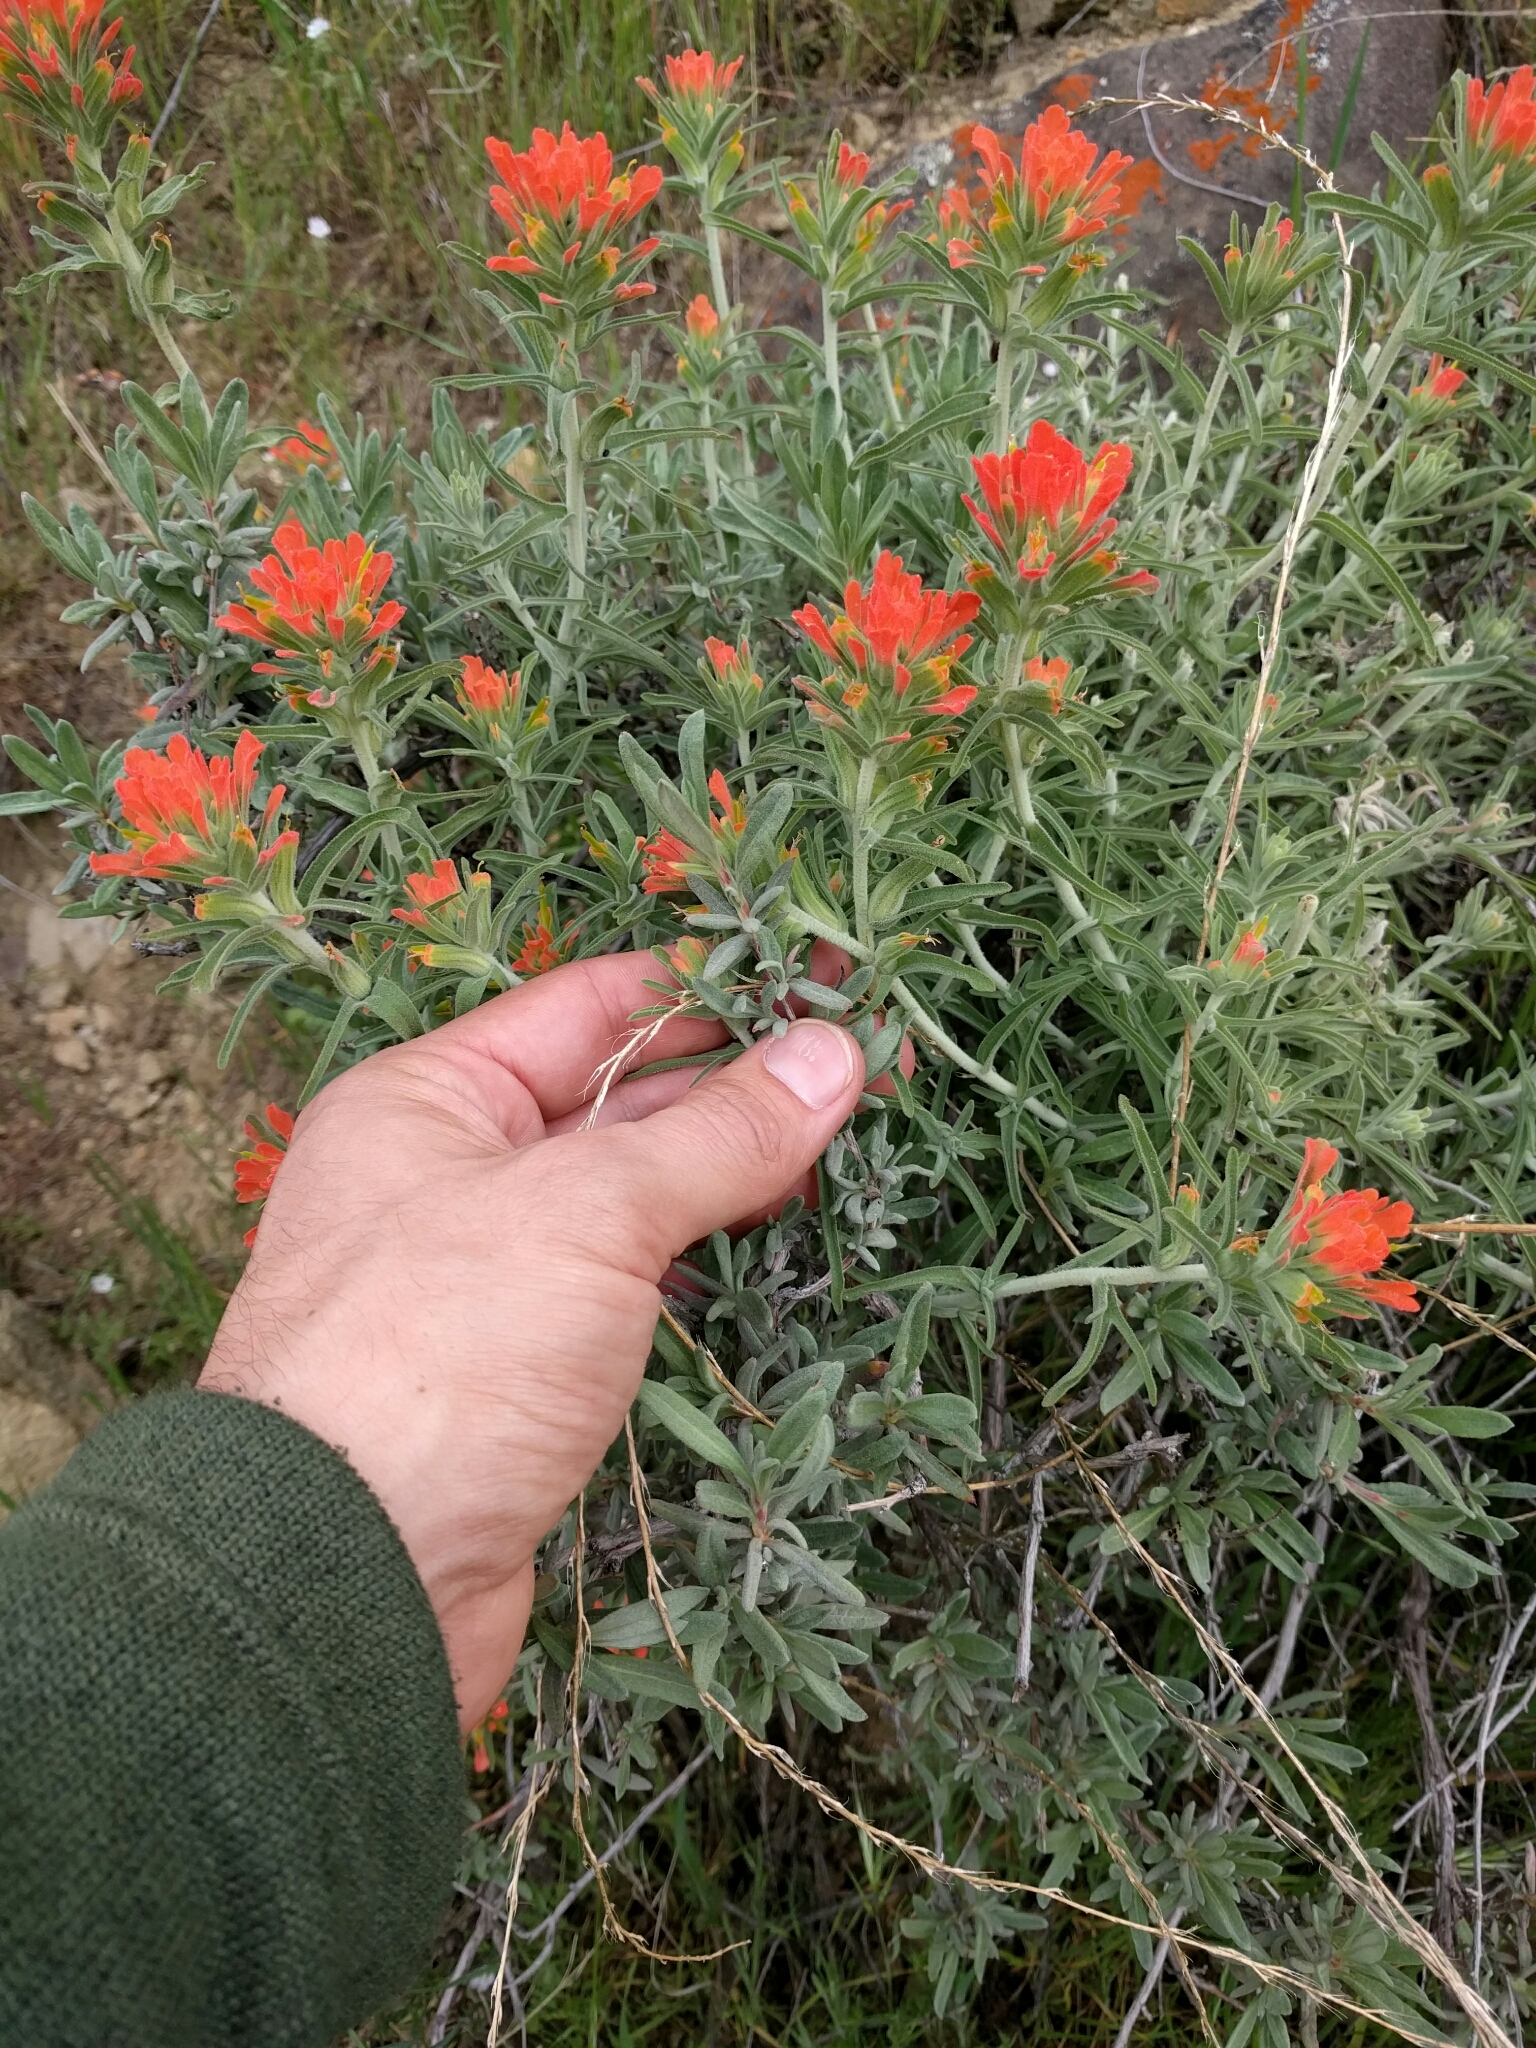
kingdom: Plantae
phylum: Tracheophyta
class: Magnoliopsida
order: Lamiales
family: Orobanchaceae
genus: Castilleja
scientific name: Castilleja foliolosa
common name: Woolly indian paintbrush
